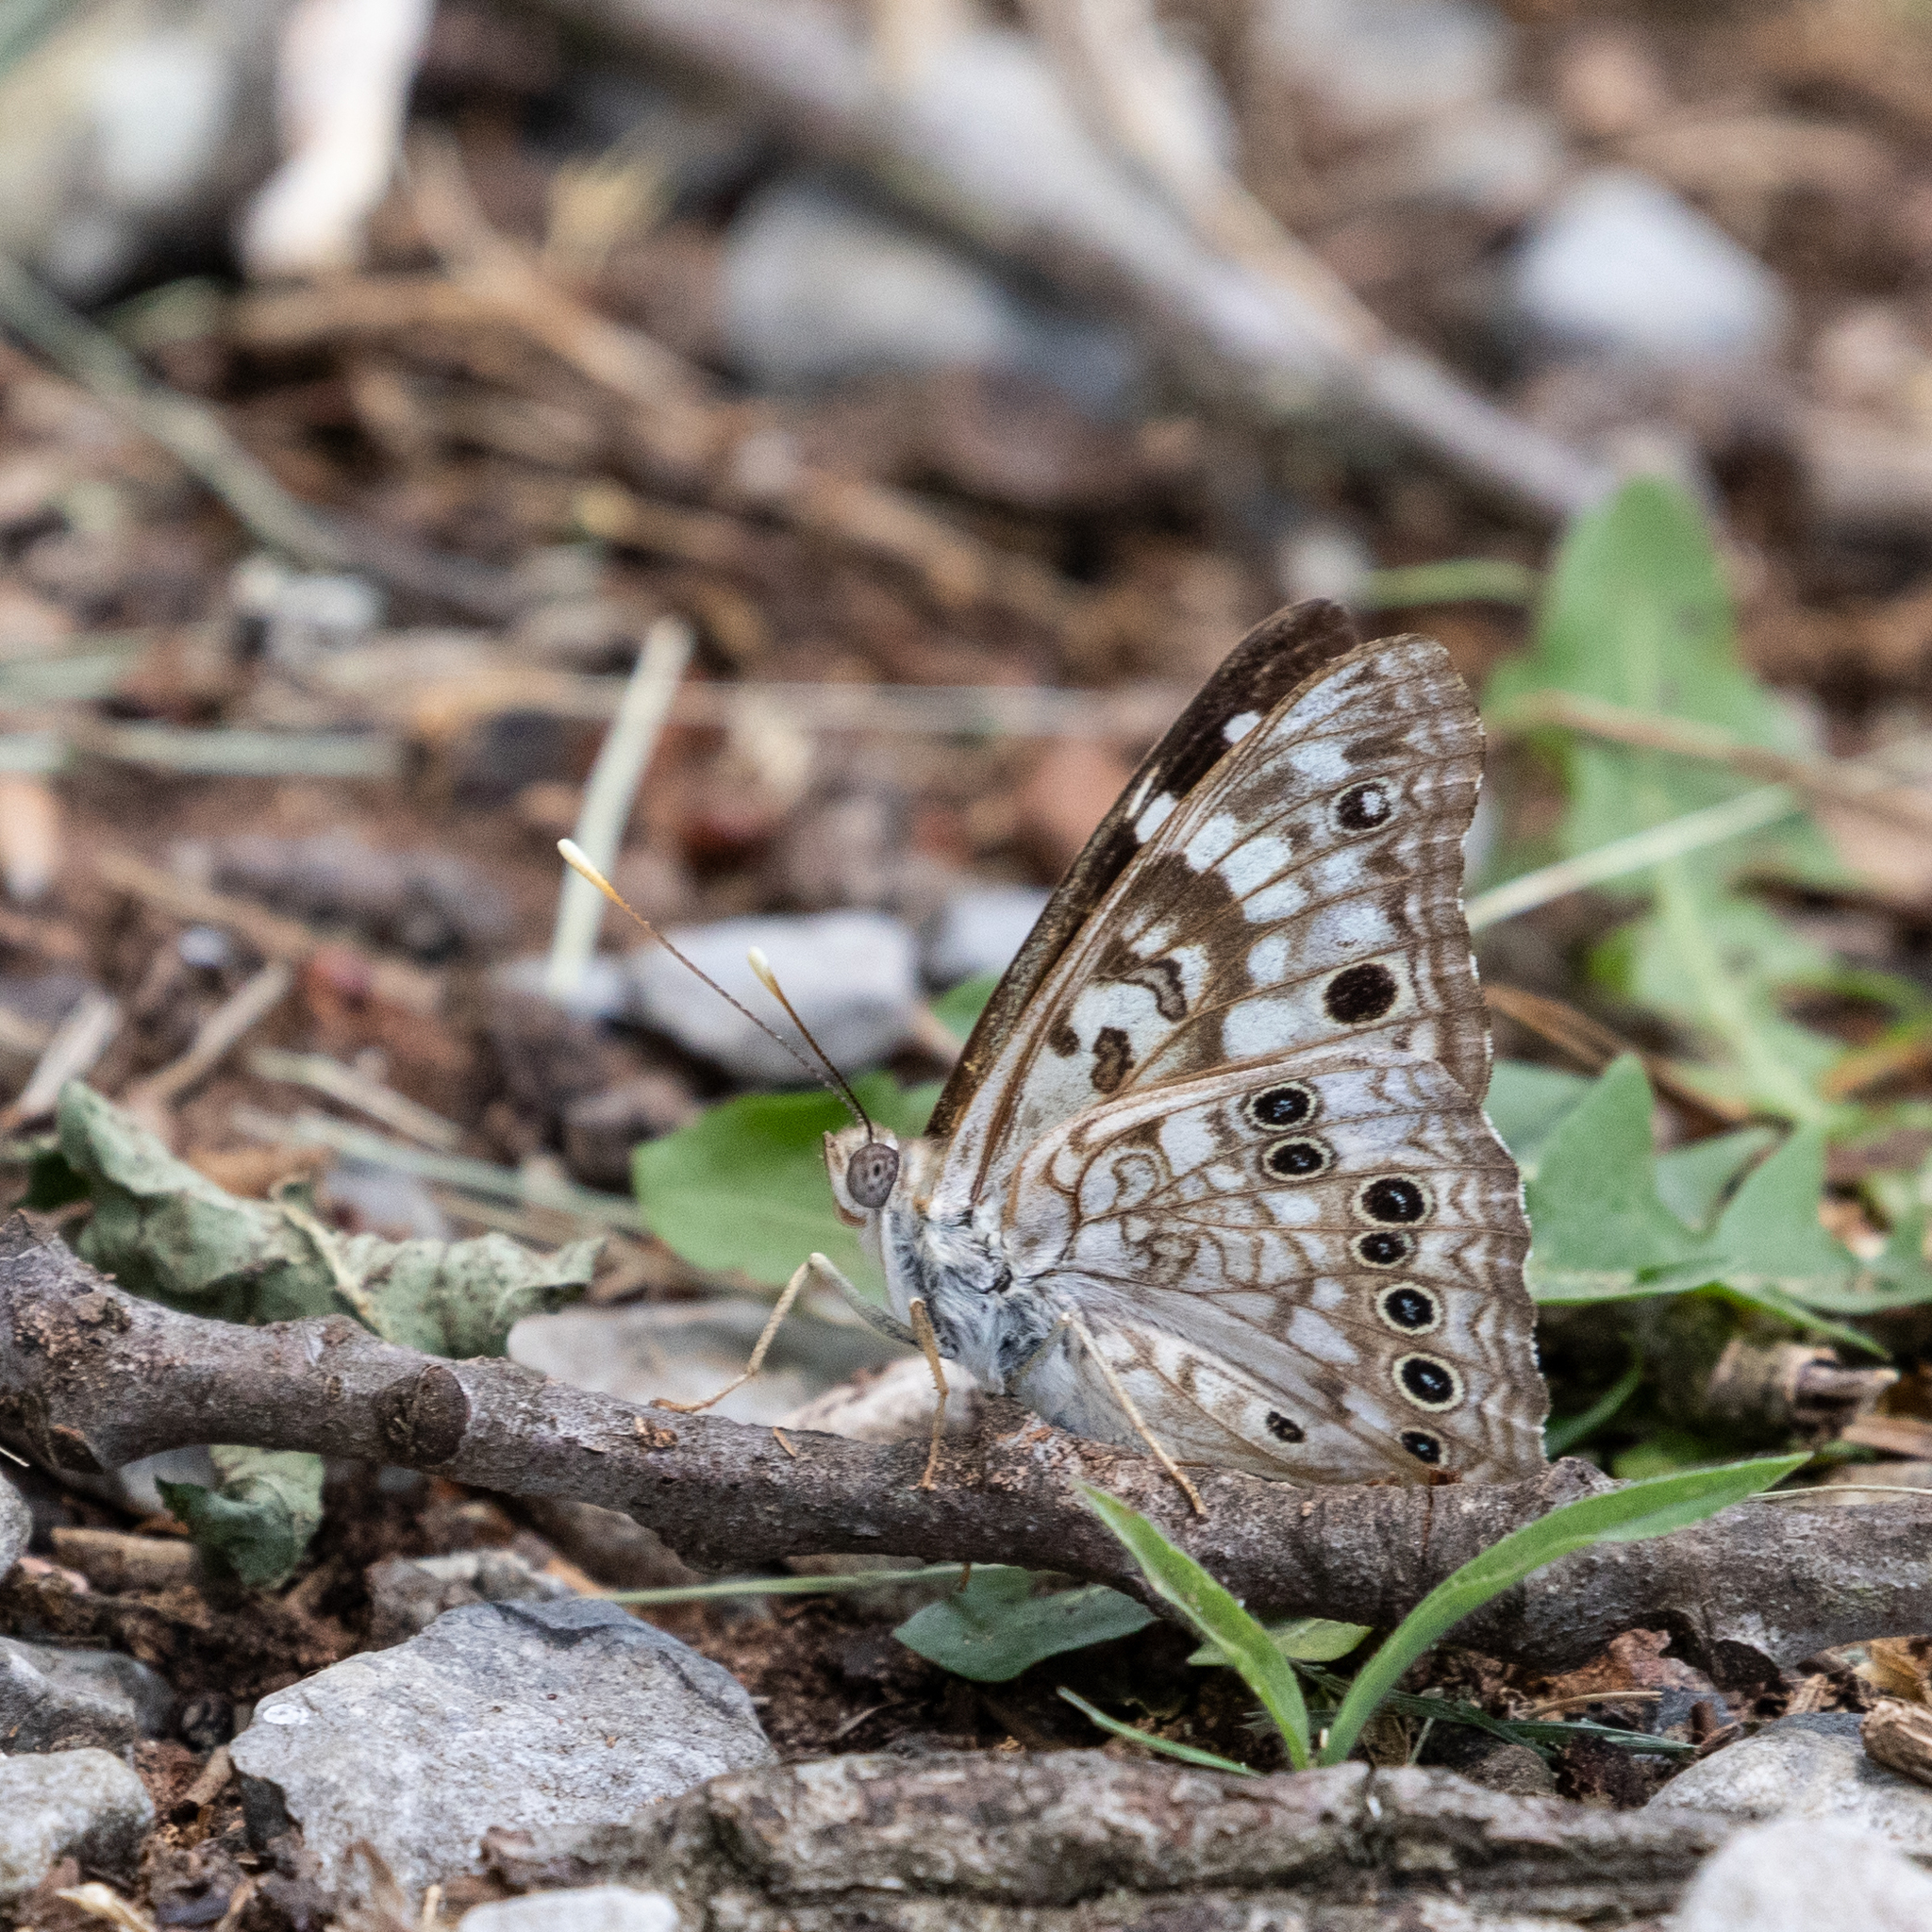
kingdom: Animalia
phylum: Arthropoda
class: Insecta
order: Lepidoptera
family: Nymphalidae
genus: Asterocampa
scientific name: Asterocampa celtis
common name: Hackberry emperor
